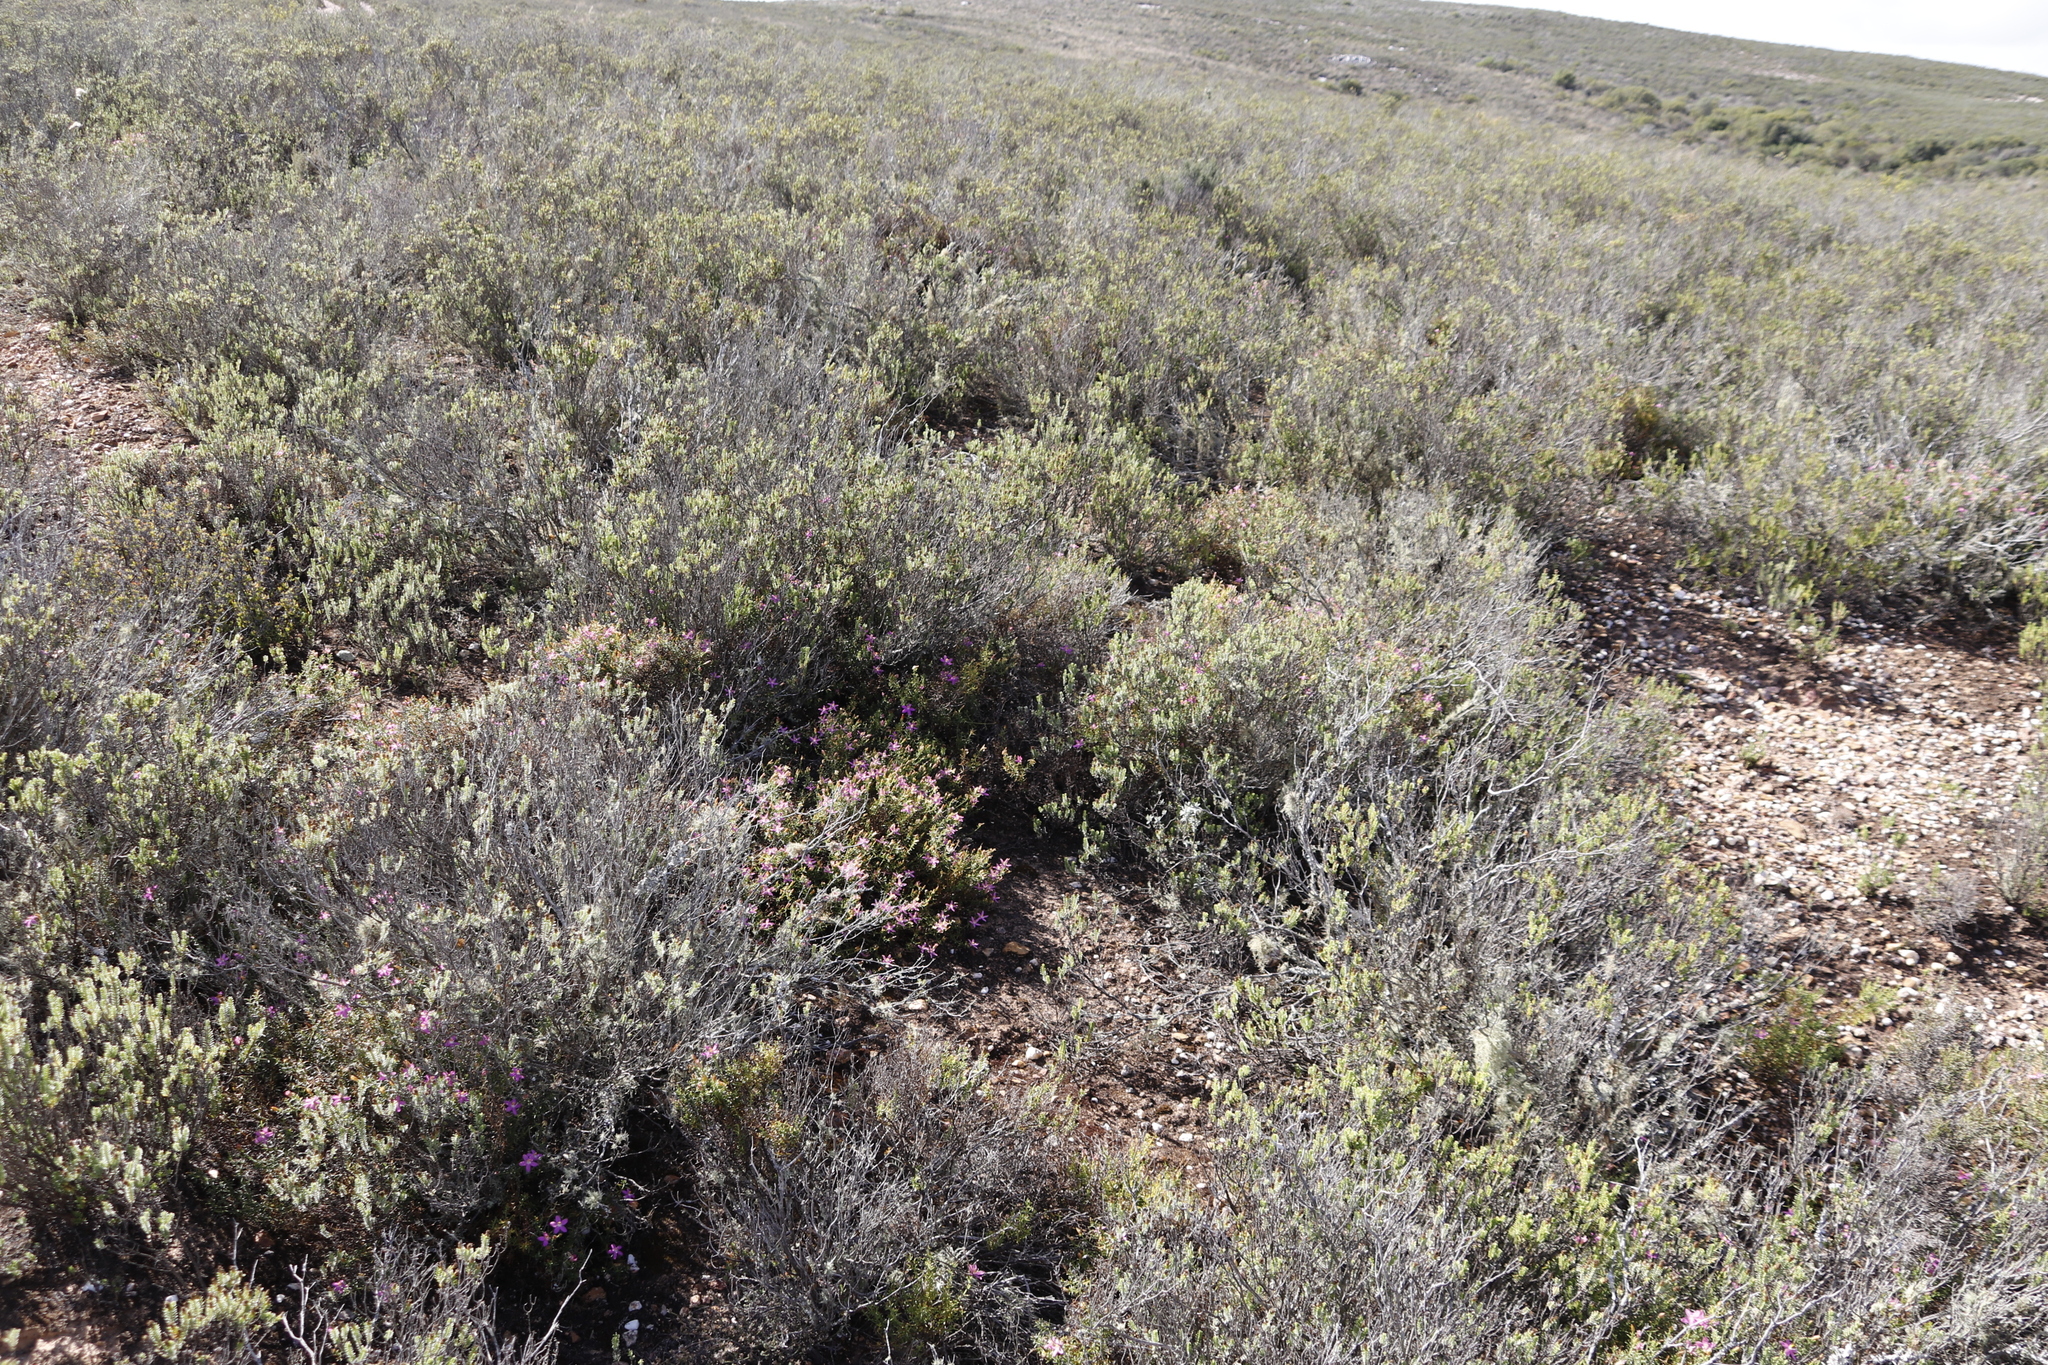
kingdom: Plantae
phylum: Tracheophyta
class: Magnoliopsida
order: Gentianales
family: Gentianaceae
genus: Chironia
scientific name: Chironia baccifera
